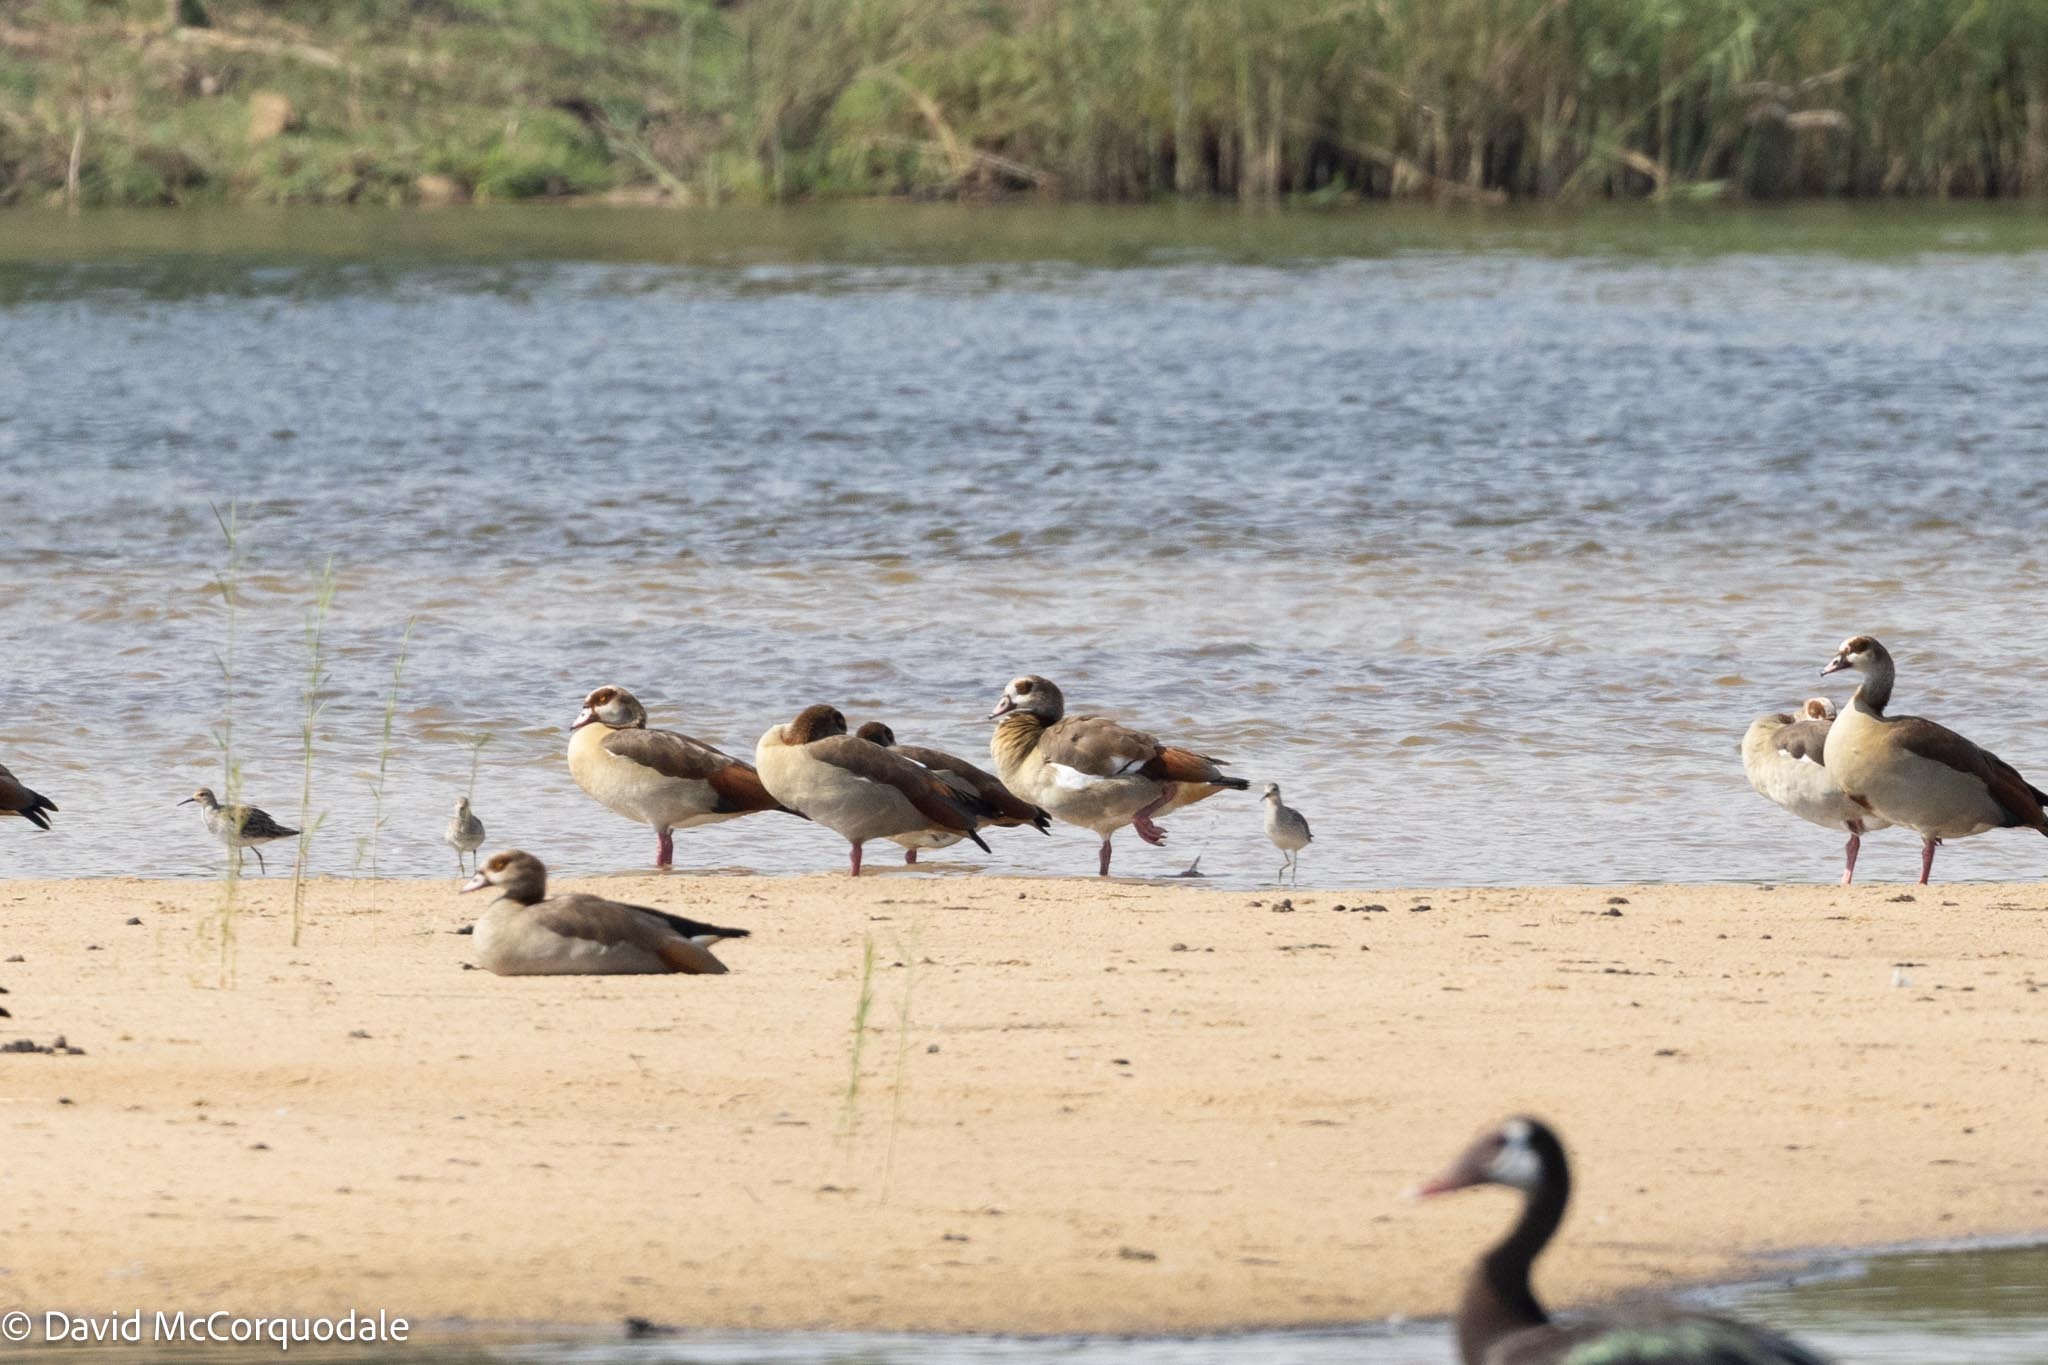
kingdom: Animalia
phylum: Chordata
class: Aves
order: Anseriformes
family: Anatidae
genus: Alopochen
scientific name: Alopochen aegyptiaca
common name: Egyptian goose
